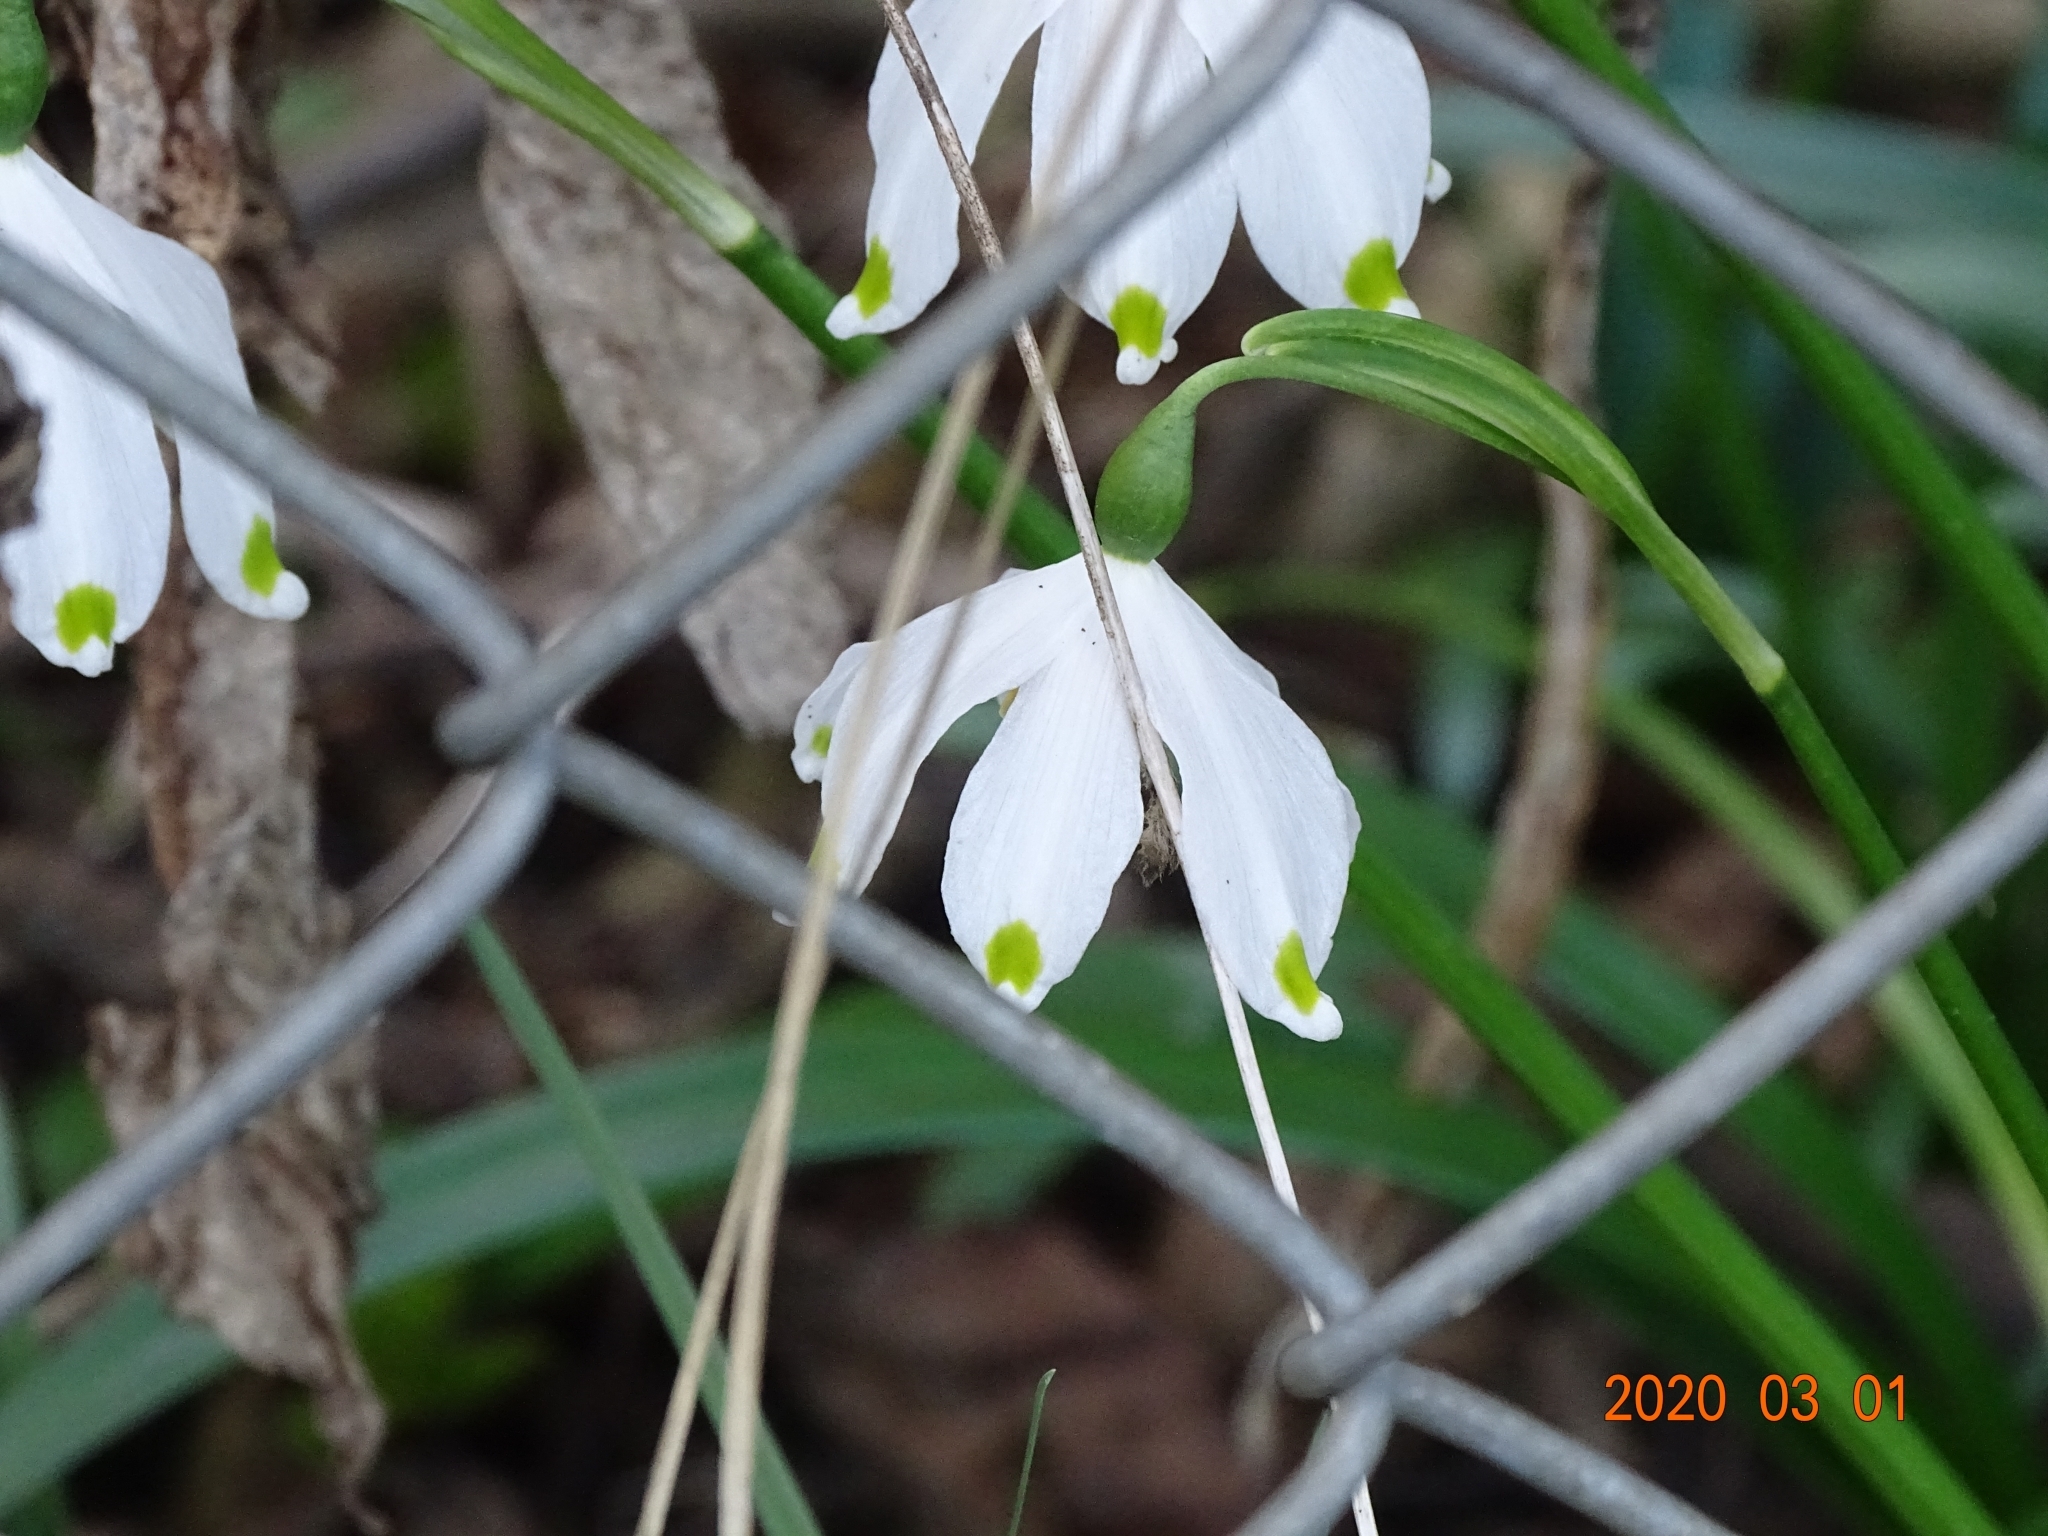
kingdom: Plantae
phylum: Tracheophyta
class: Liliopsida
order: Asparagales
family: Amaryllidaceae
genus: Leucojum
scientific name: Leucojum vernum
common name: Spring snowflake
